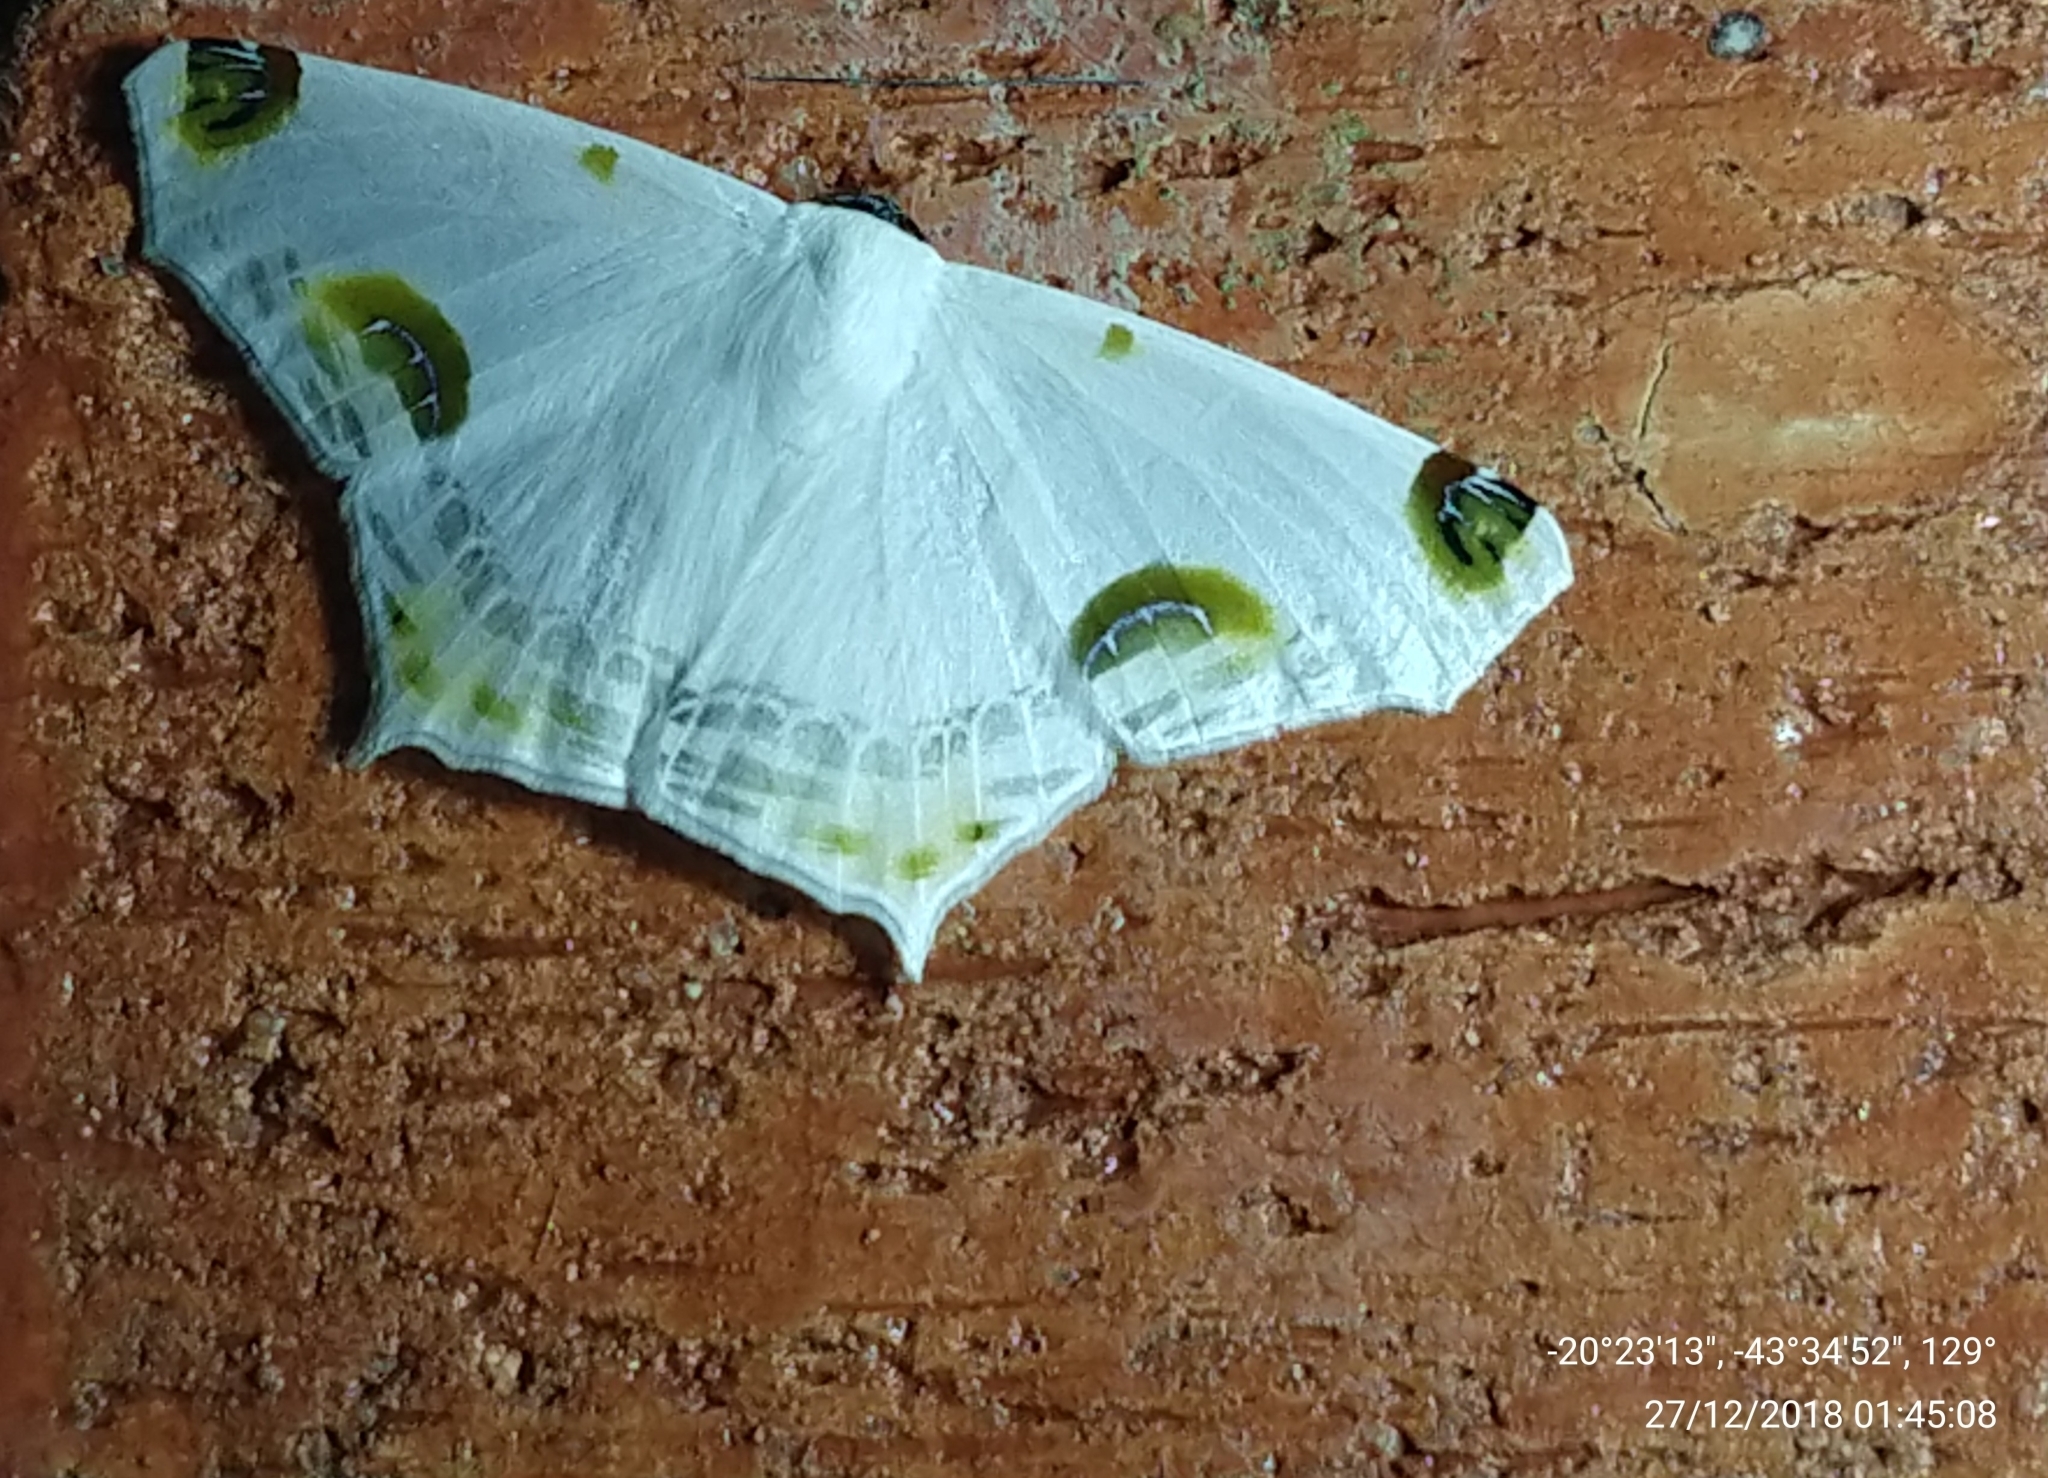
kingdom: Animalia
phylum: Arthropoda
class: Insecta
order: Lepidoptera
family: Geometridae
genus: Sericoptera
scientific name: Sericoptera mahometaria
